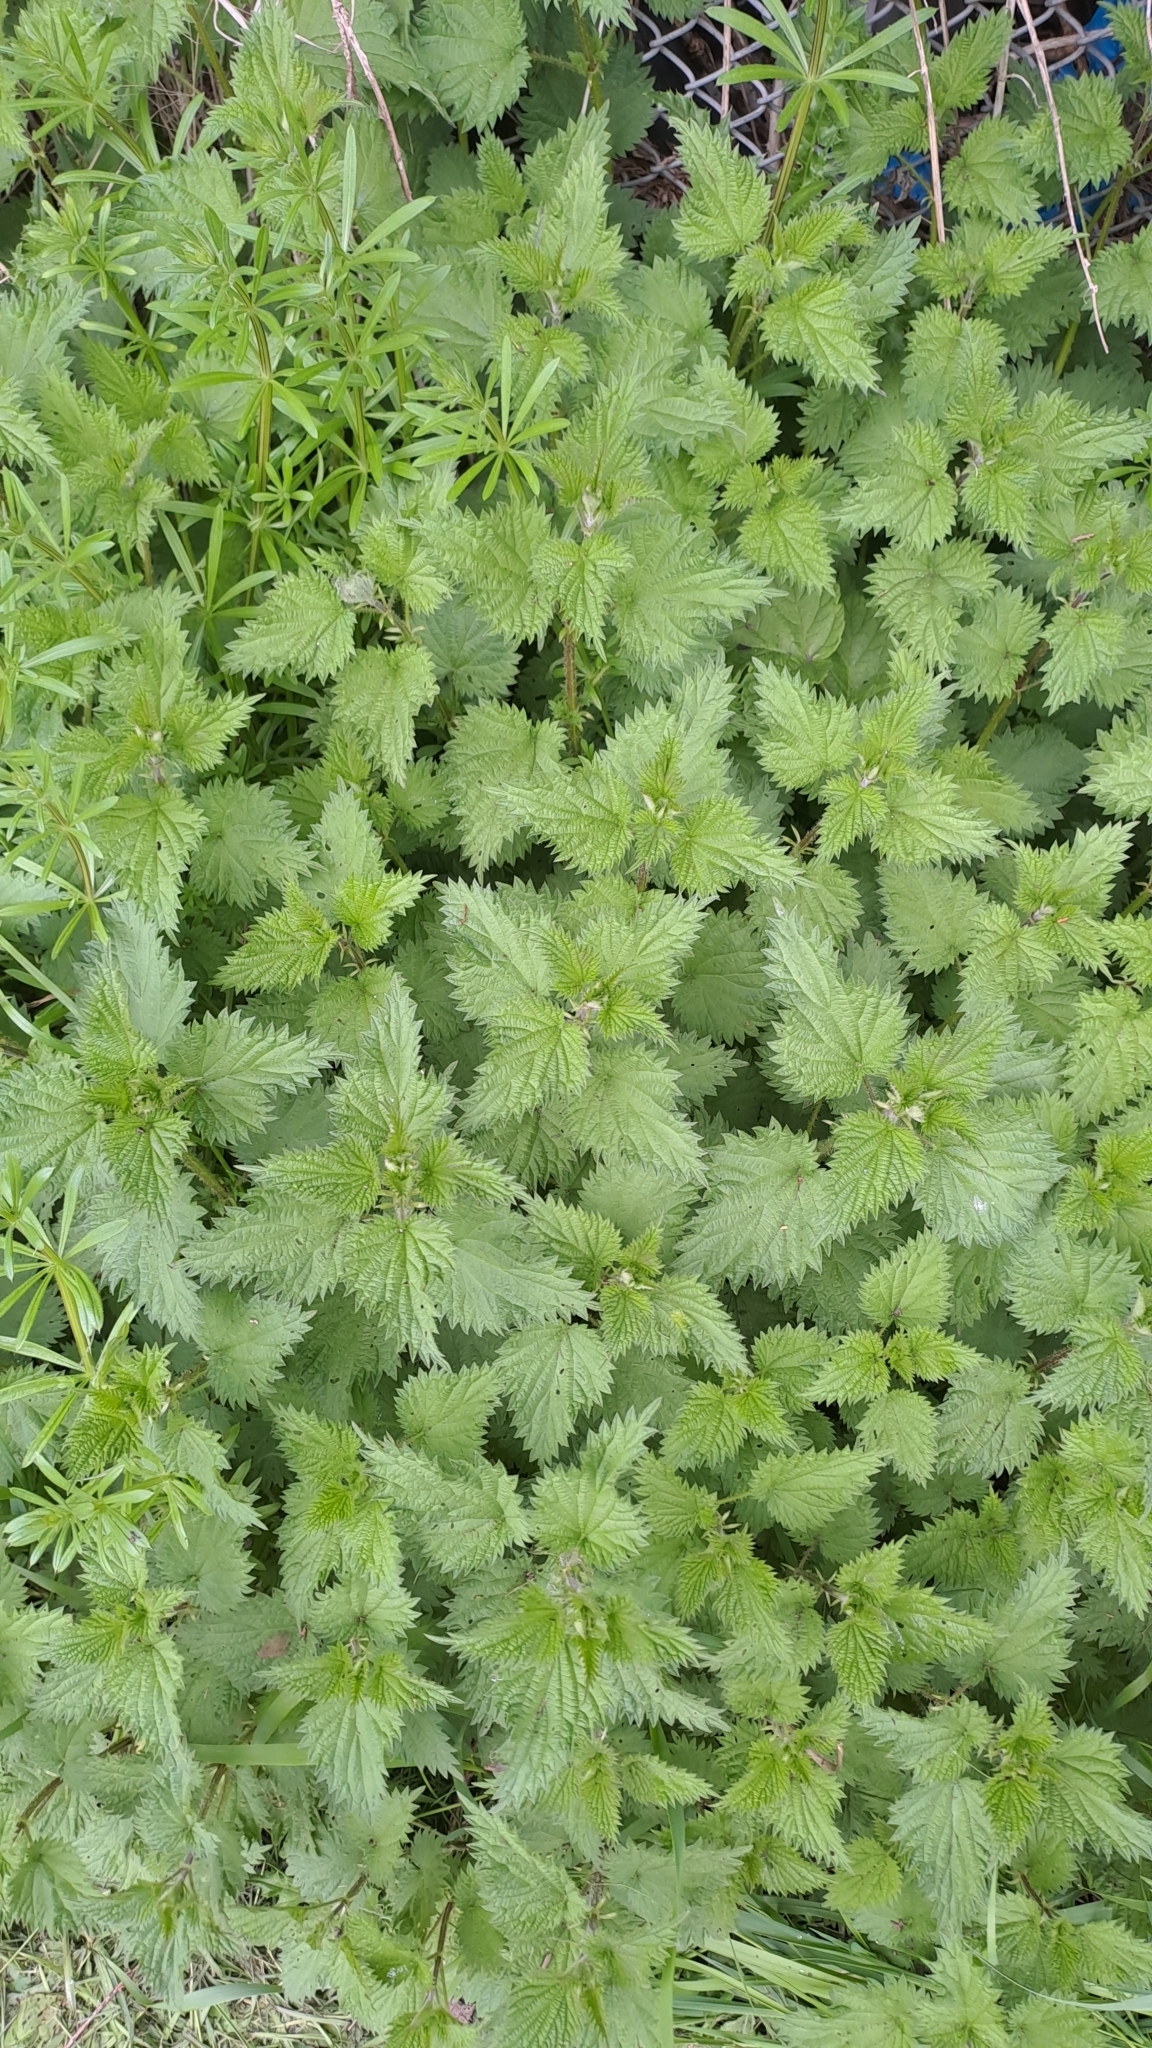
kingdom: Plantae
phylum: Tracheophyta
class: Magnoliopsida
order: Rosales
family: Urticaceae
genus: Urtica
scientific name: Urtica dioica
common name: Common nettle
